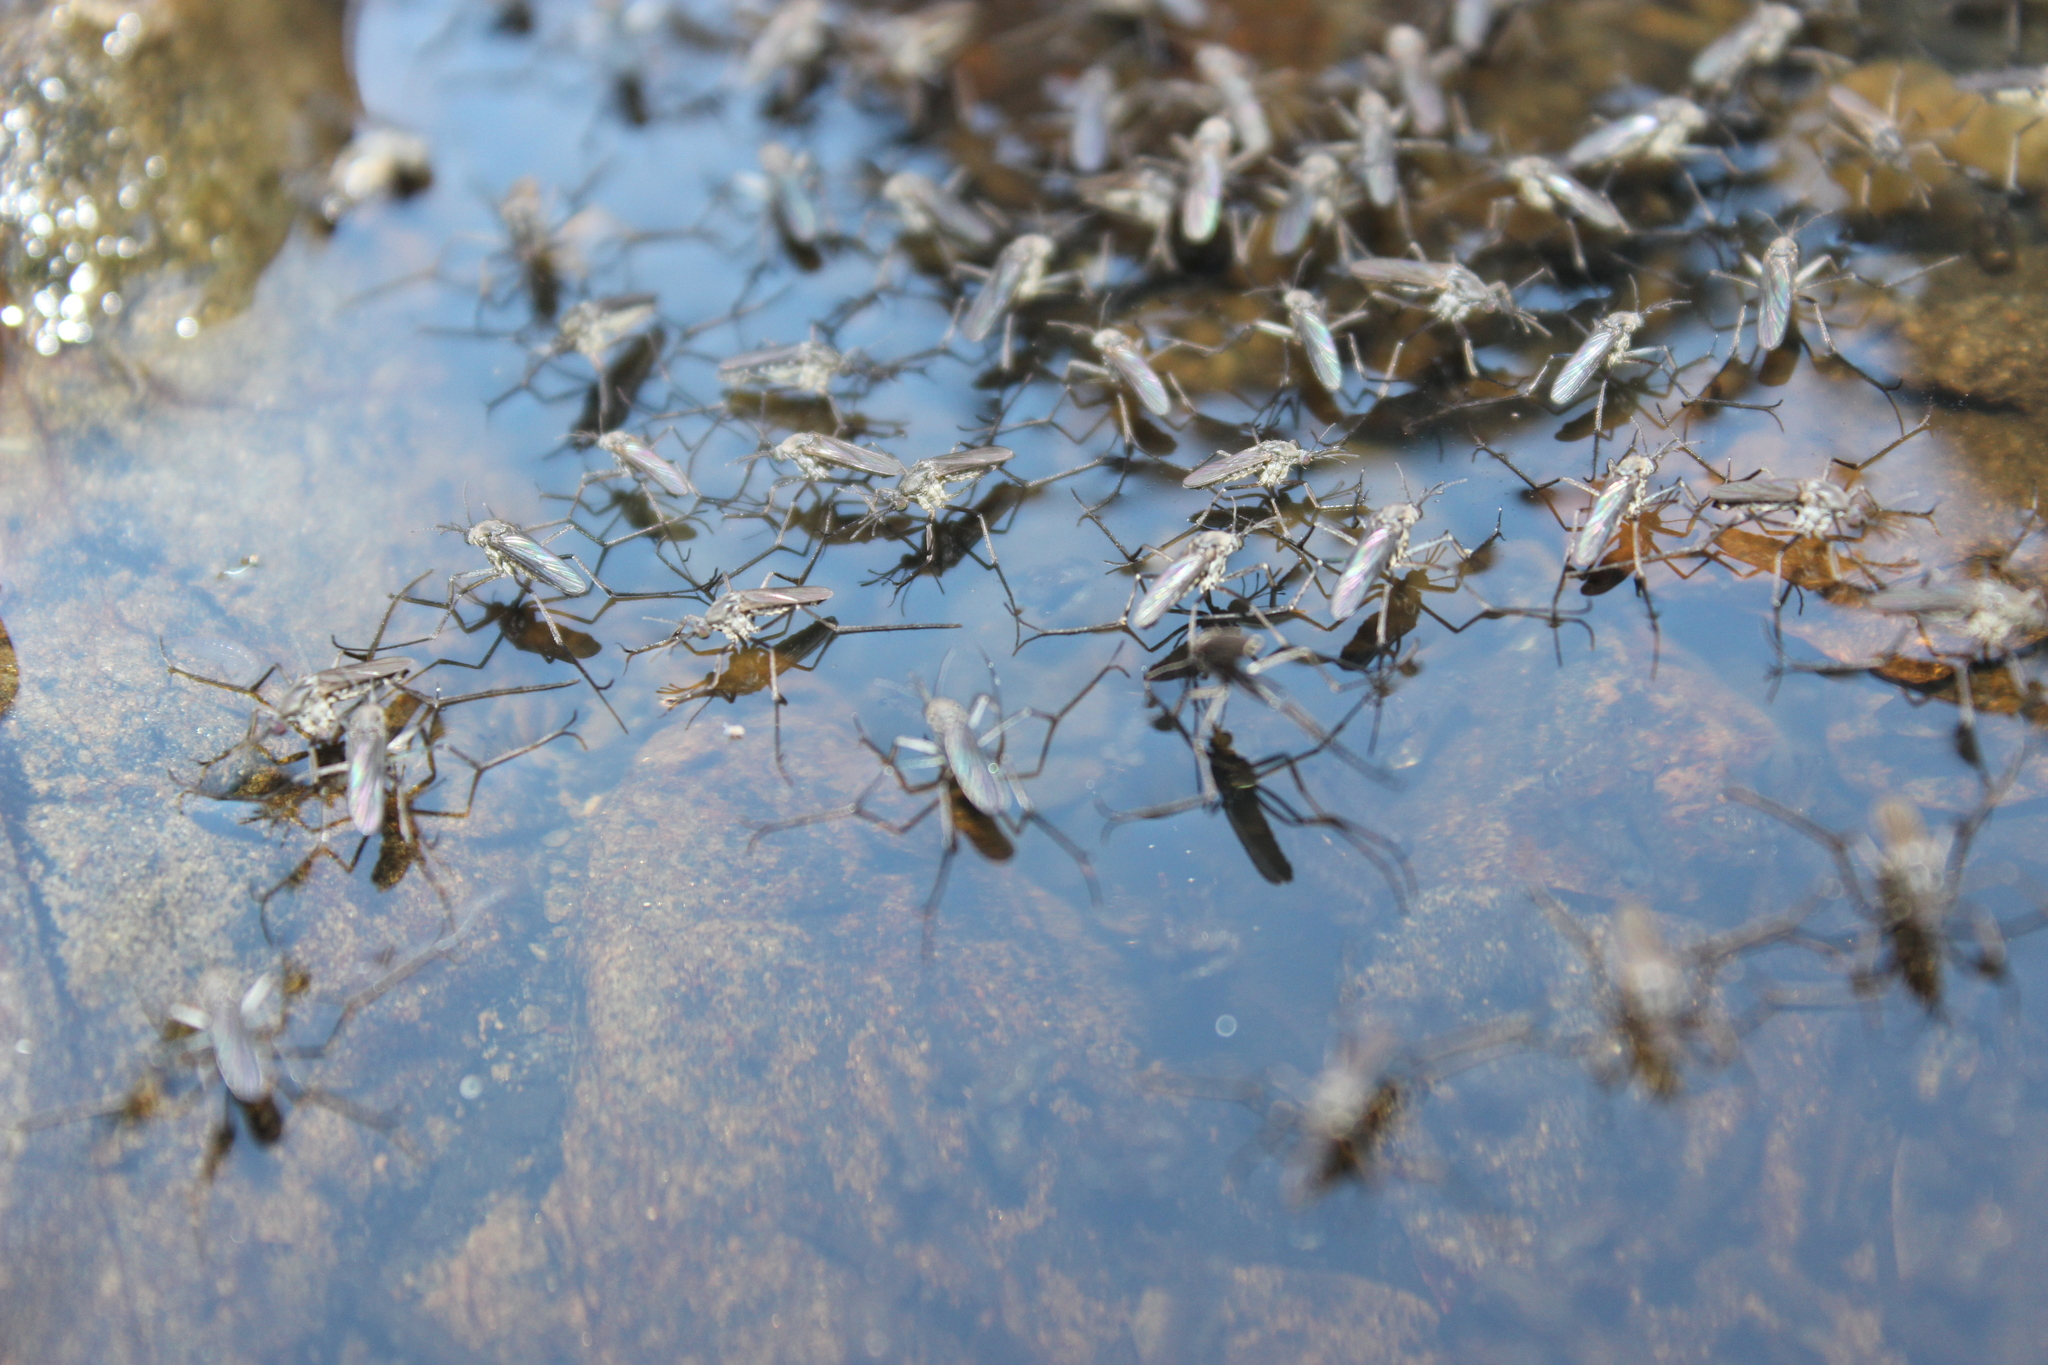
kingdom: Animalia
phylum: Arthropoda
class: Insecta
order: Diptera
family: Culicidae
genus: Opifex
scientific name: Opifex fuscus
